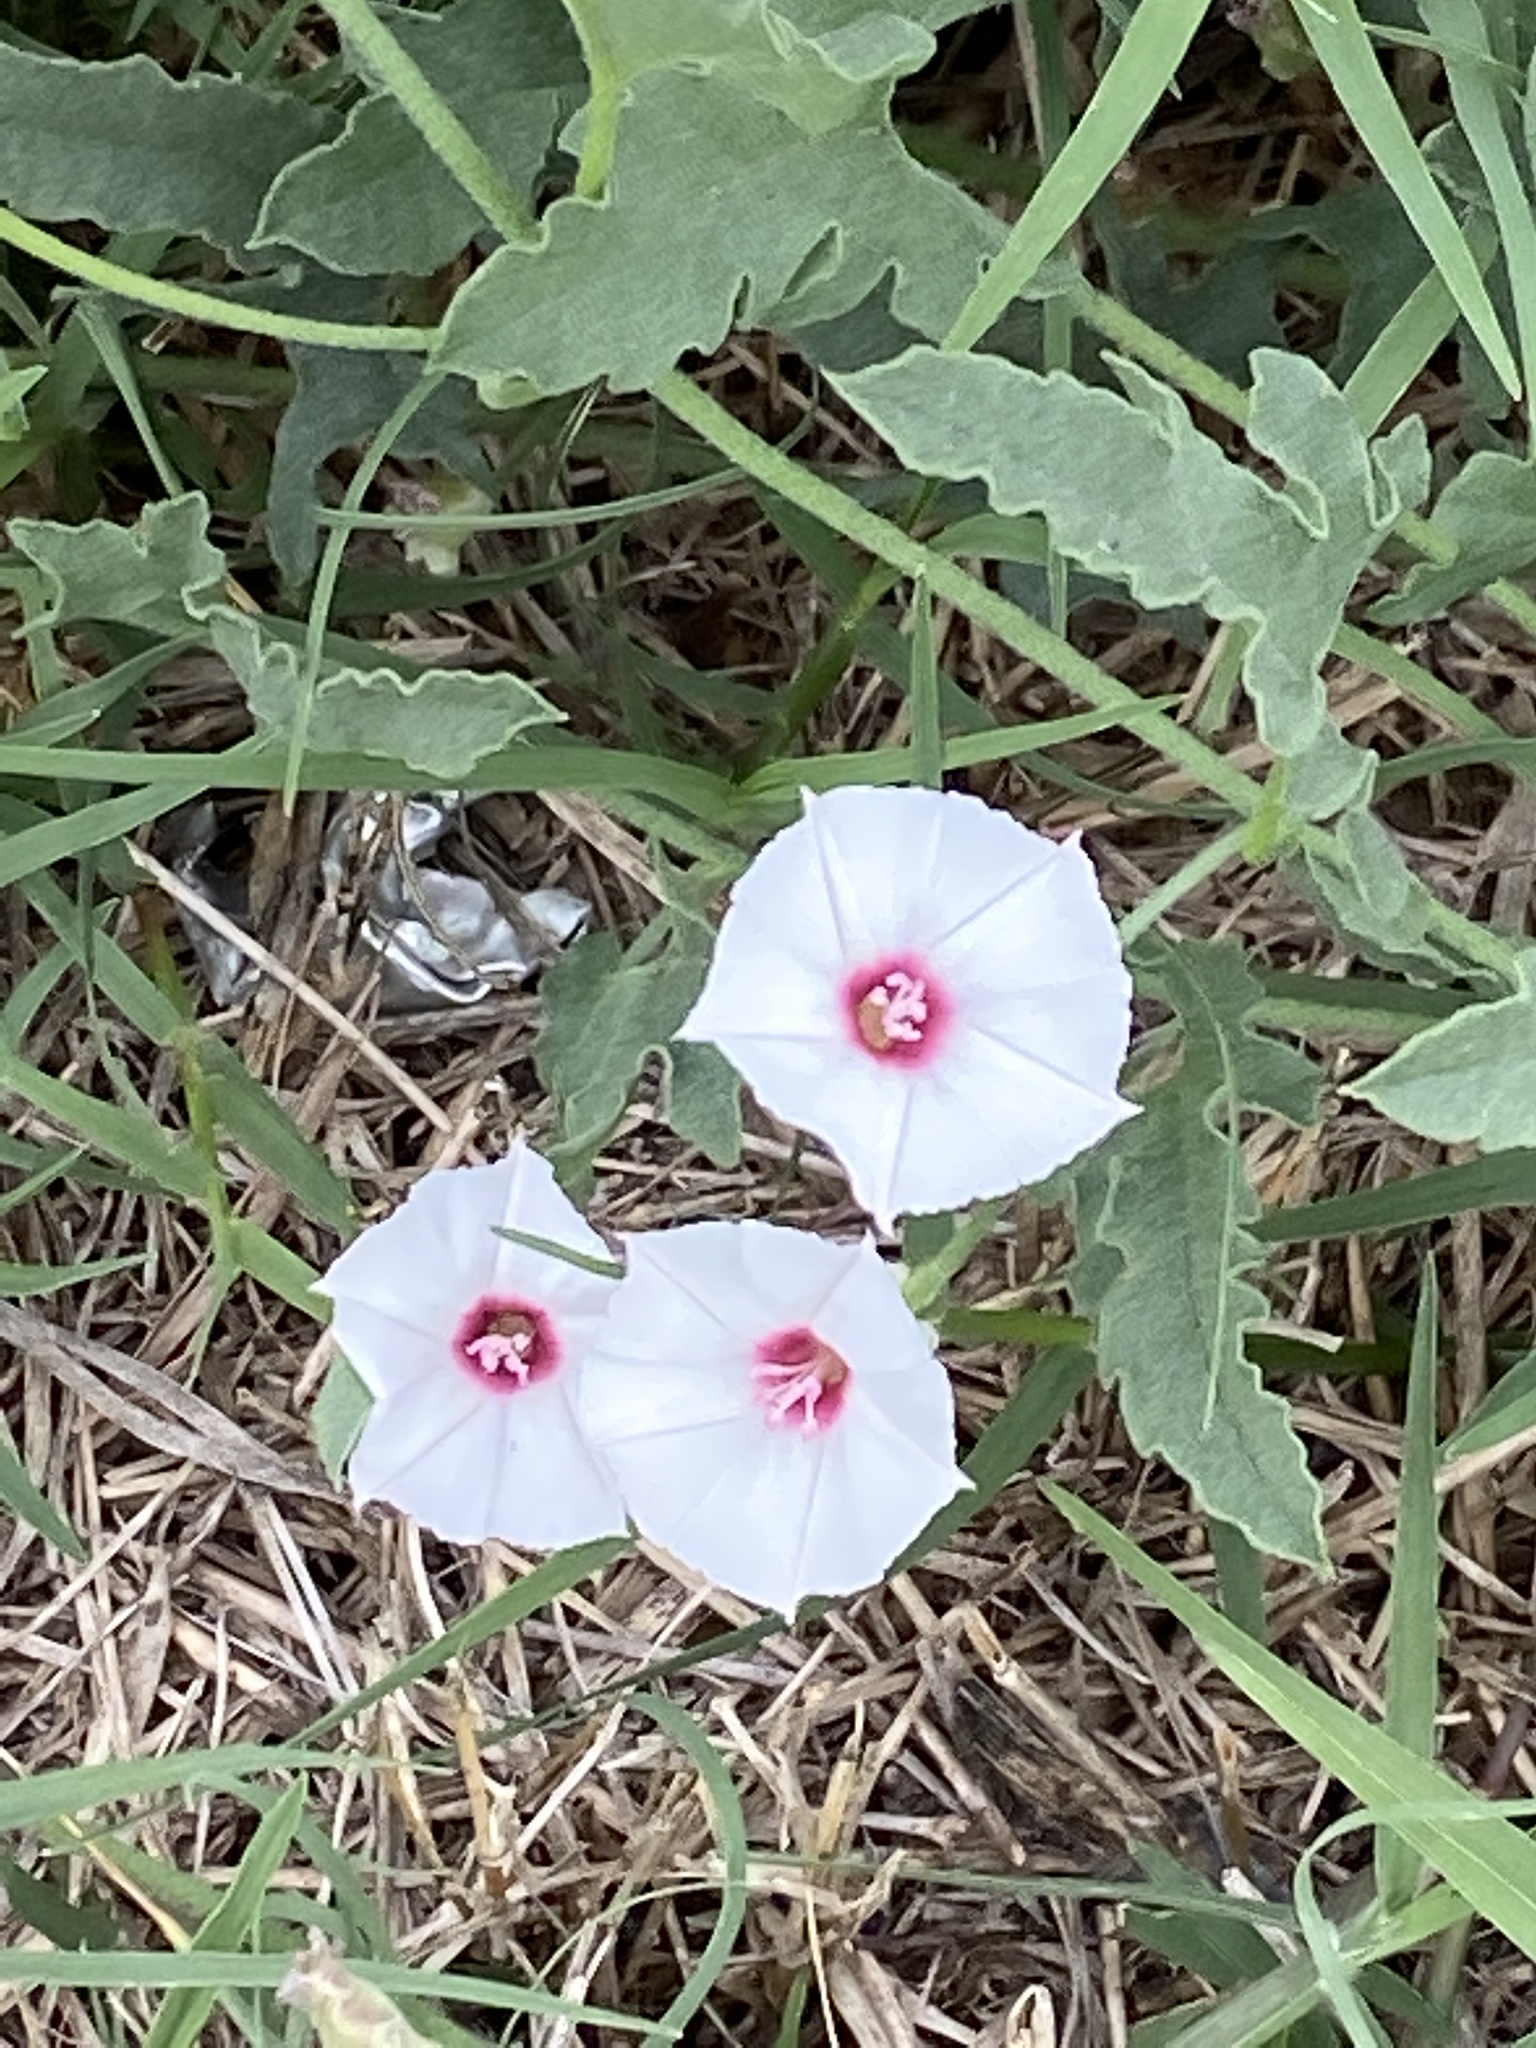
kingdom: Plantae
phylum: Tracheophyta
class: Magnoliopsida
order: Solanales
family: Convolvulaceae
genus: Convolvulus
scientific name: Convolvulus equitans
